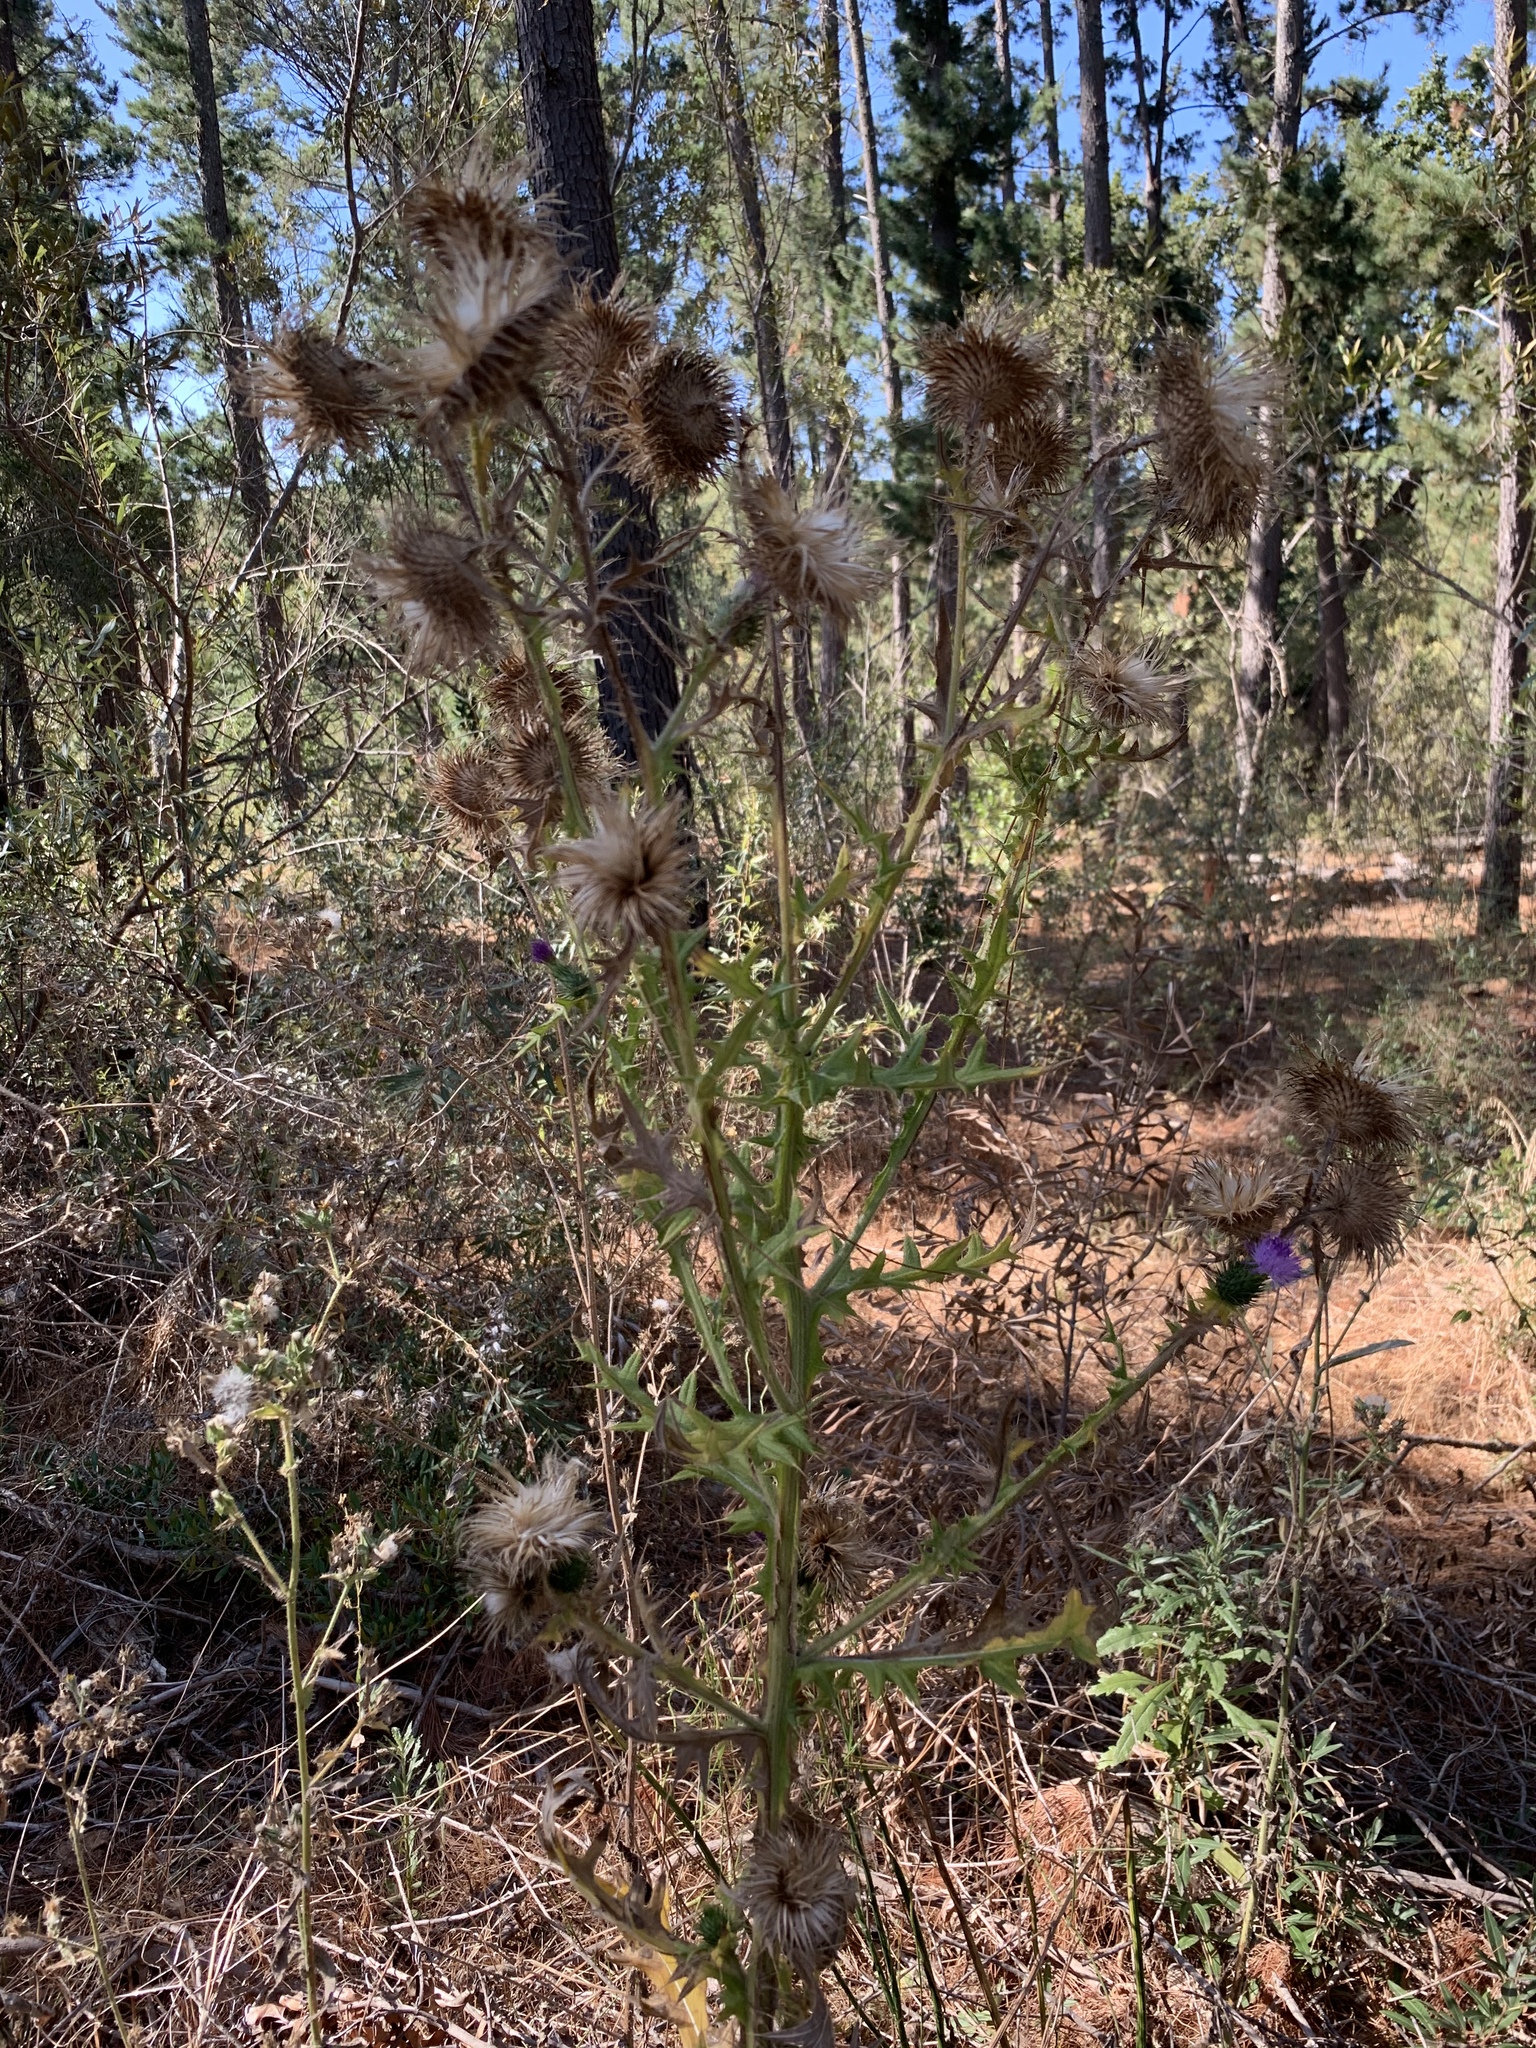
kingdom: Plantae
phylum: Tracheophyta
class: Magnoliopsida
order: Asterales
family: Asteraceae
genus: Cirsium
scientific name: Cirsium vulgare
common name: Bull thistle
